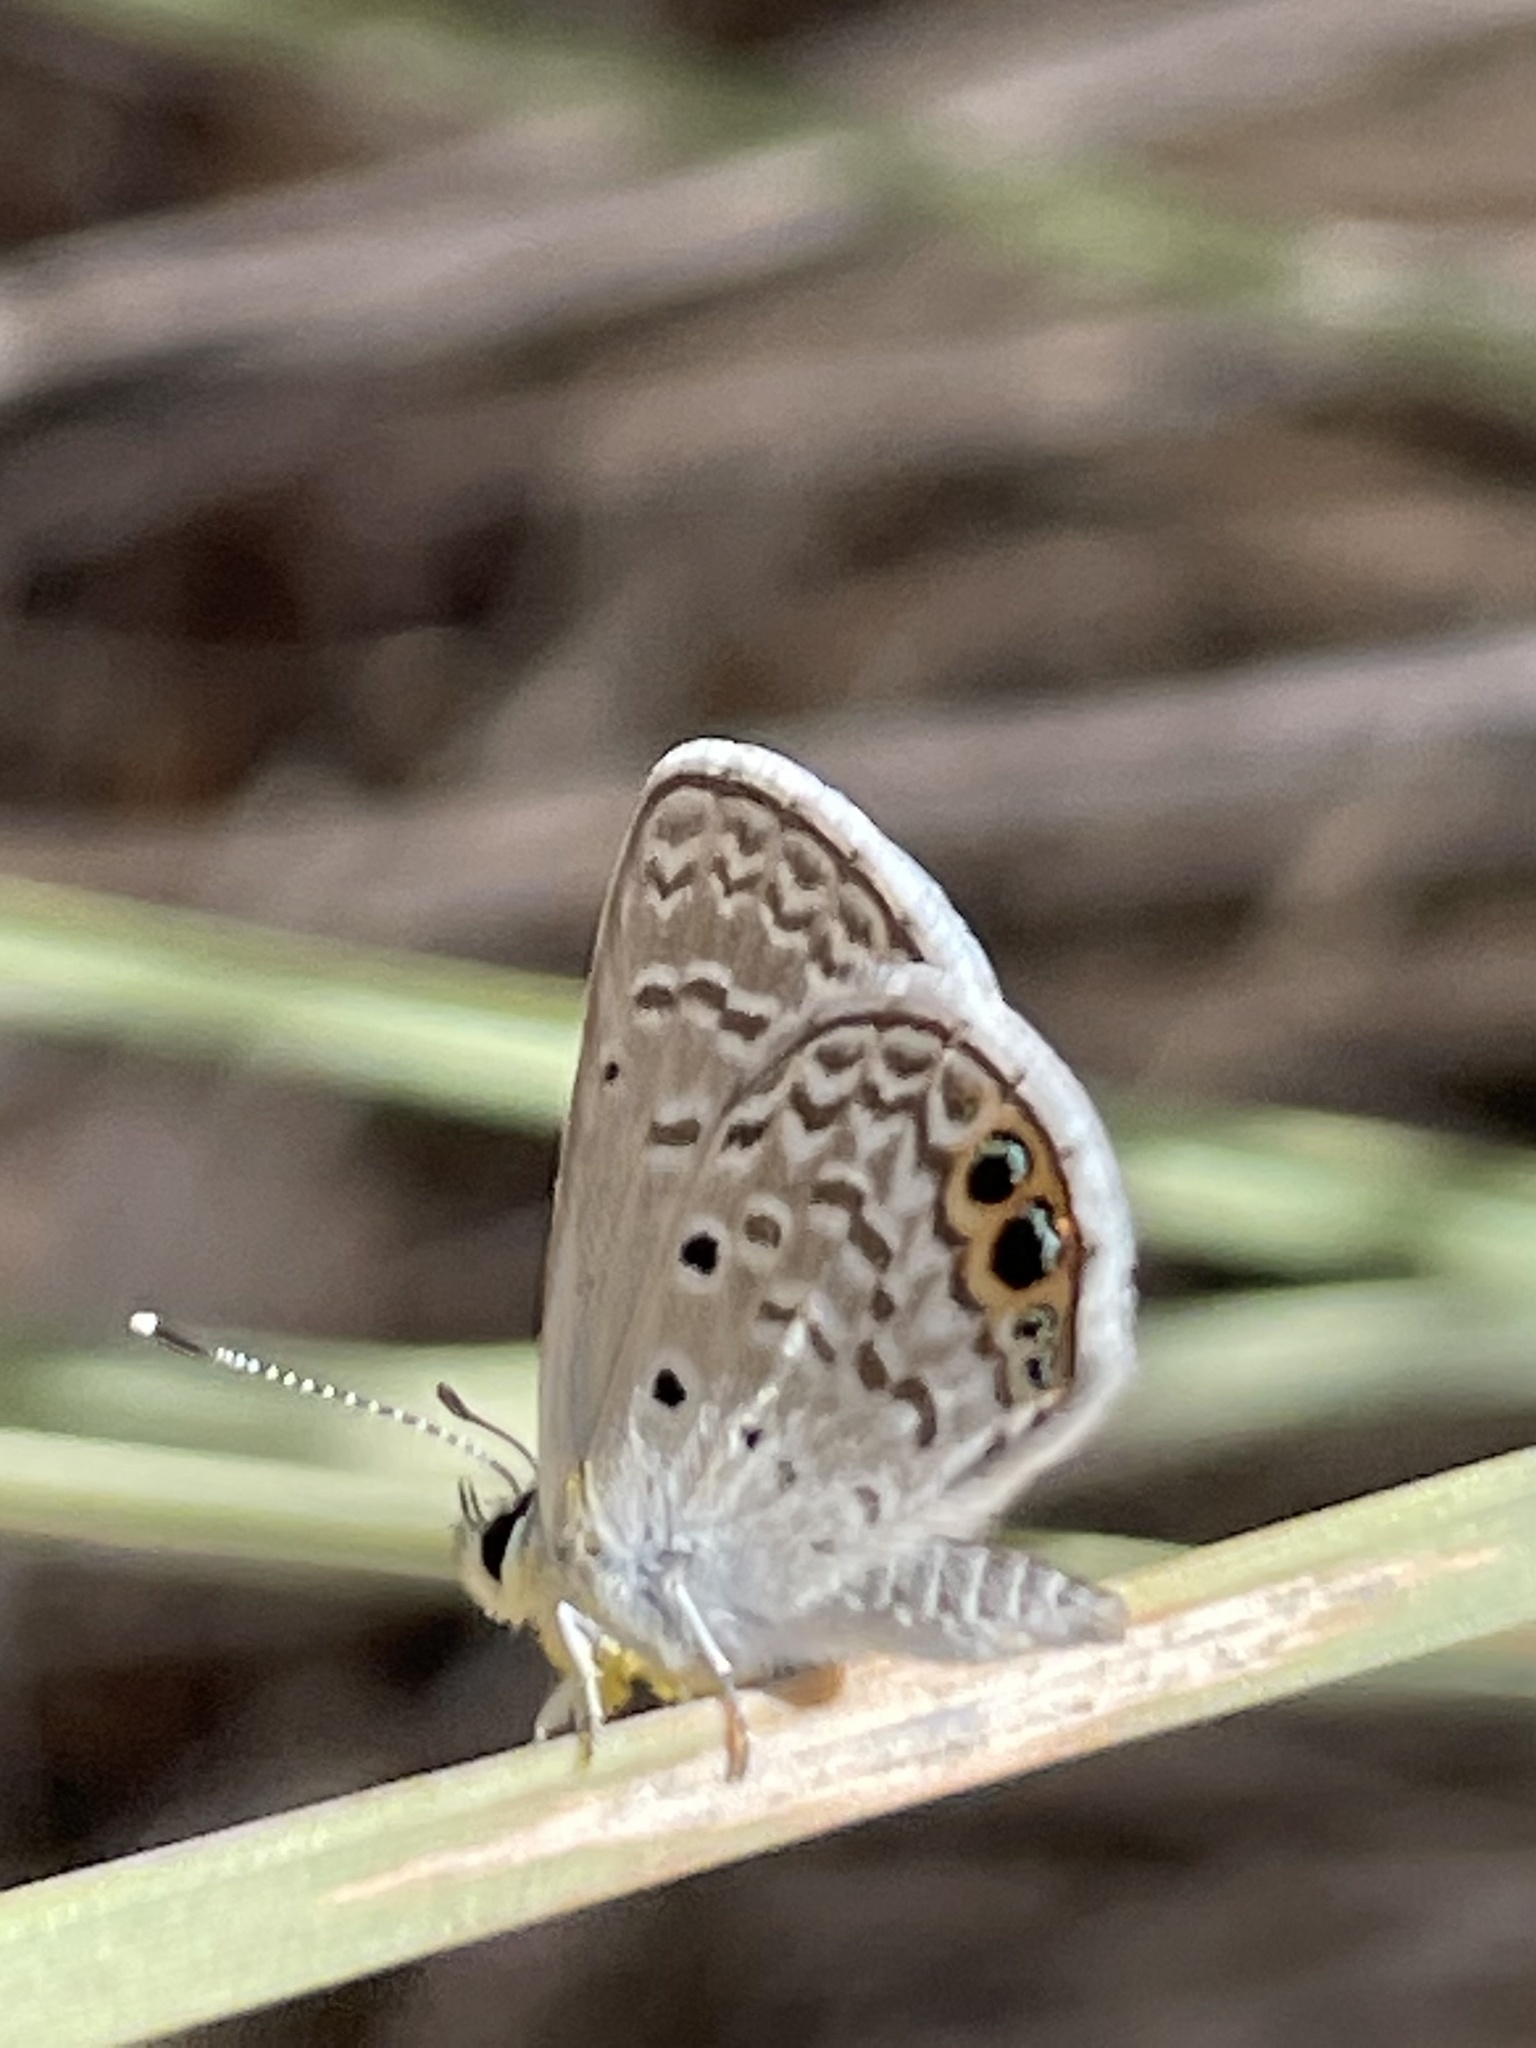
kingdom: Animalia
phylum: Arthropoda
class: Insecta
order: Lepidoptera
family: Lycaenidae
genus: Hemiargus
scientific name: Hemiargus ceraunus
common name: Ceraunus blue
